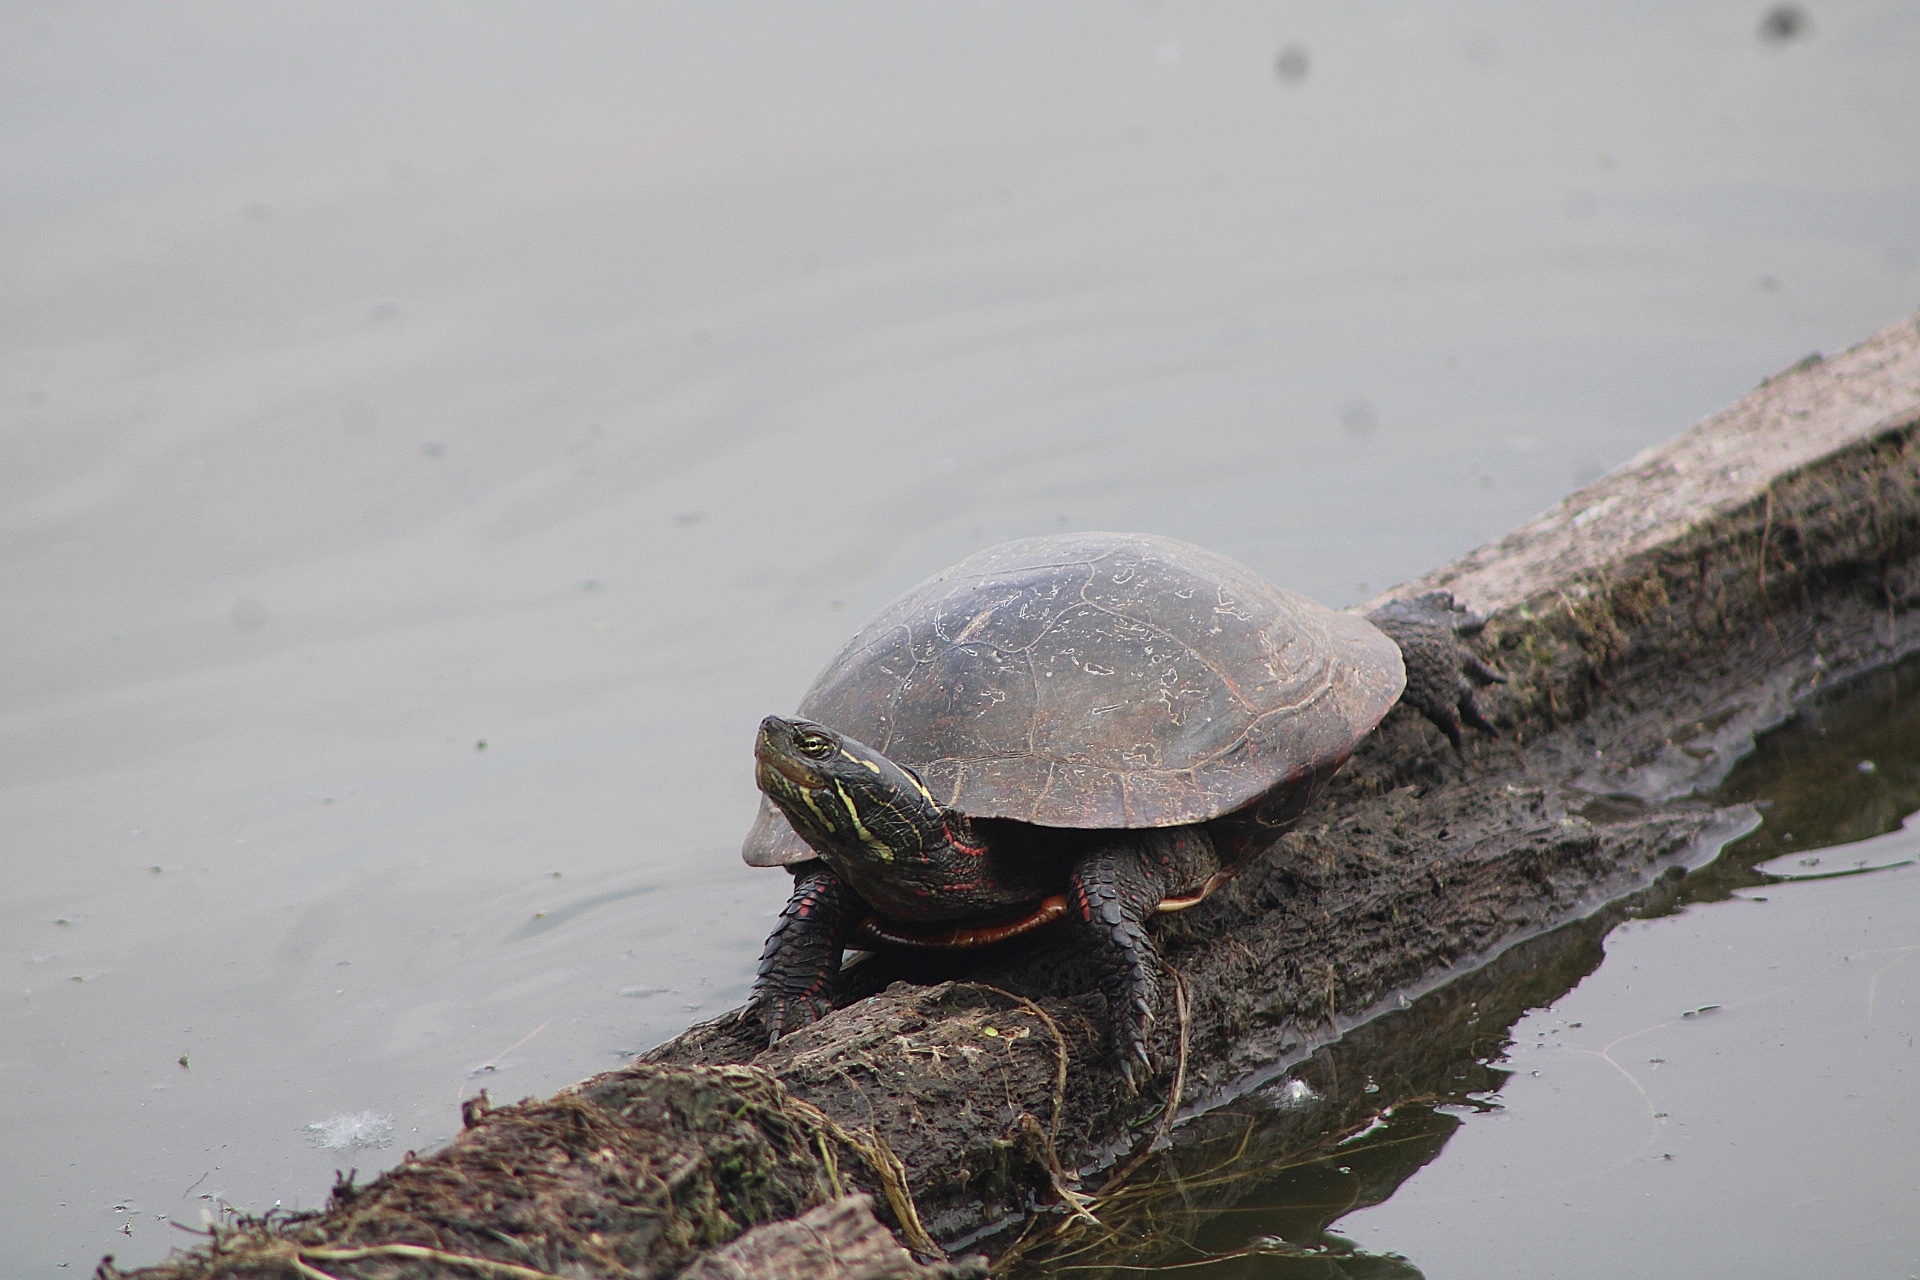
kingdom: Animalia
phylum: Chordata
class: Testudines
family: Emydidae
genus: Chrysemys
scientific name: Chrysemys picta
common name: Painted turtle
